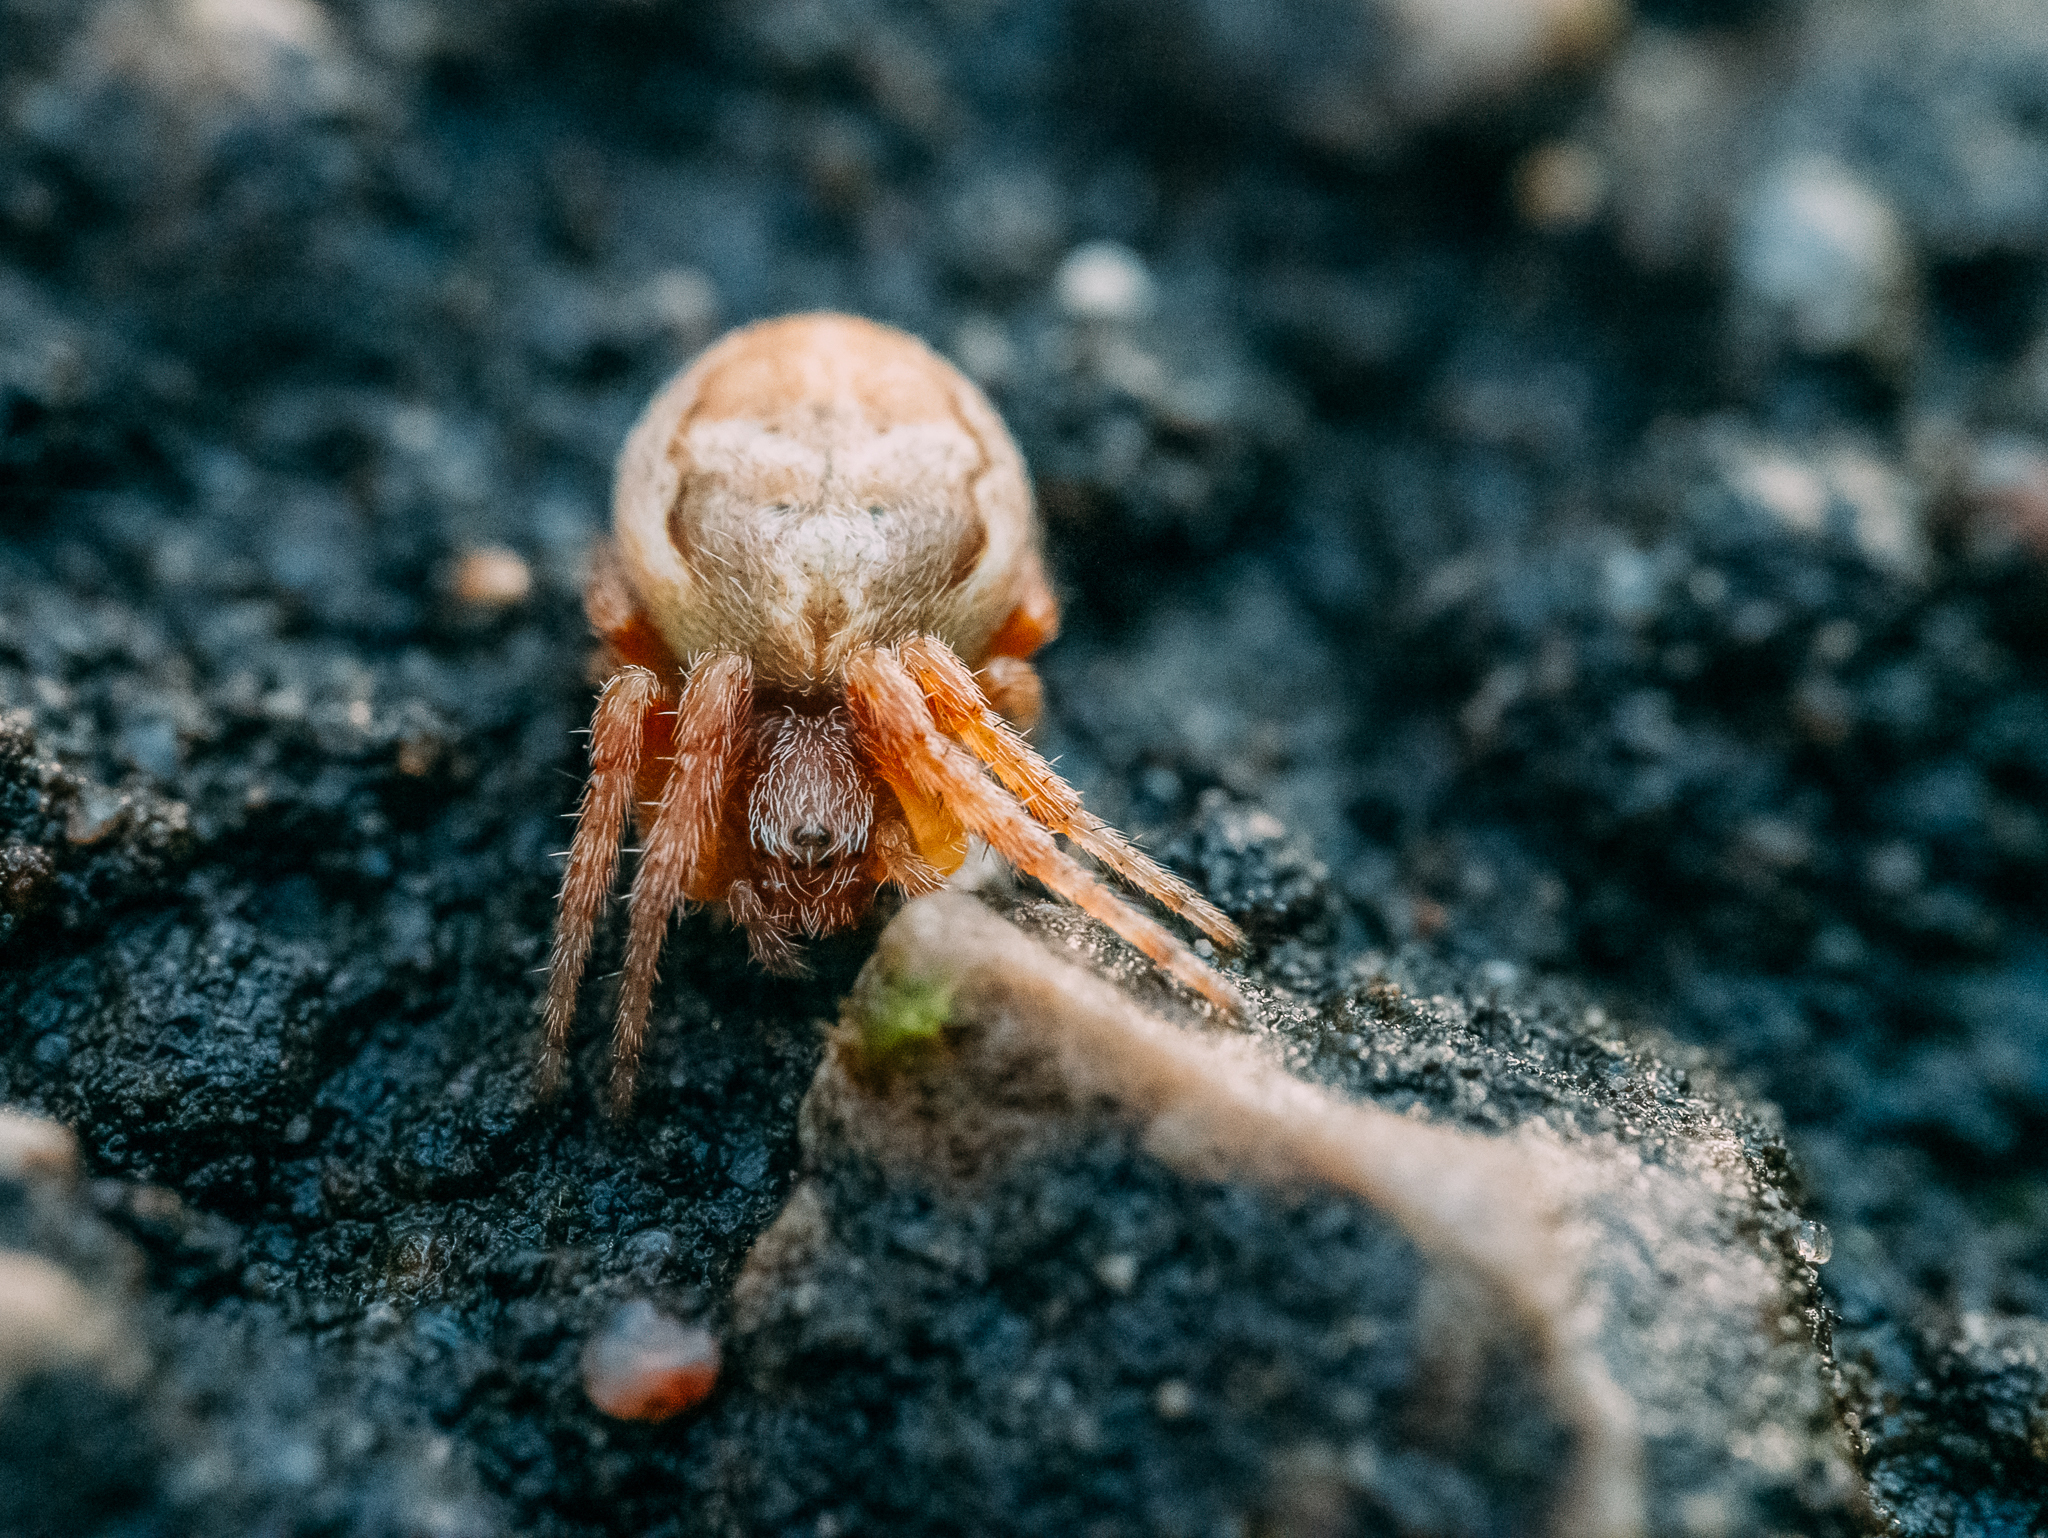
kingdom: Animalia
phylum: Arthropoda
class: Arachnida
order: Araneae
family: Araneidae
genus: Larinioides
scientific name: Larinioides patagiatus
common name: Ornamental orbweaver
